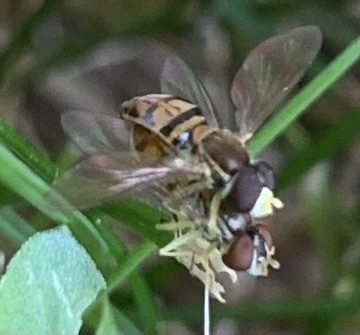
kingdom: Animalia
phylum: Arthropoda
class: Insecta
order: Diptera
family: Syrphidae
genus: Toxomerus
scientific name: Toxomerus marginatus
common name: Syrphid fly
